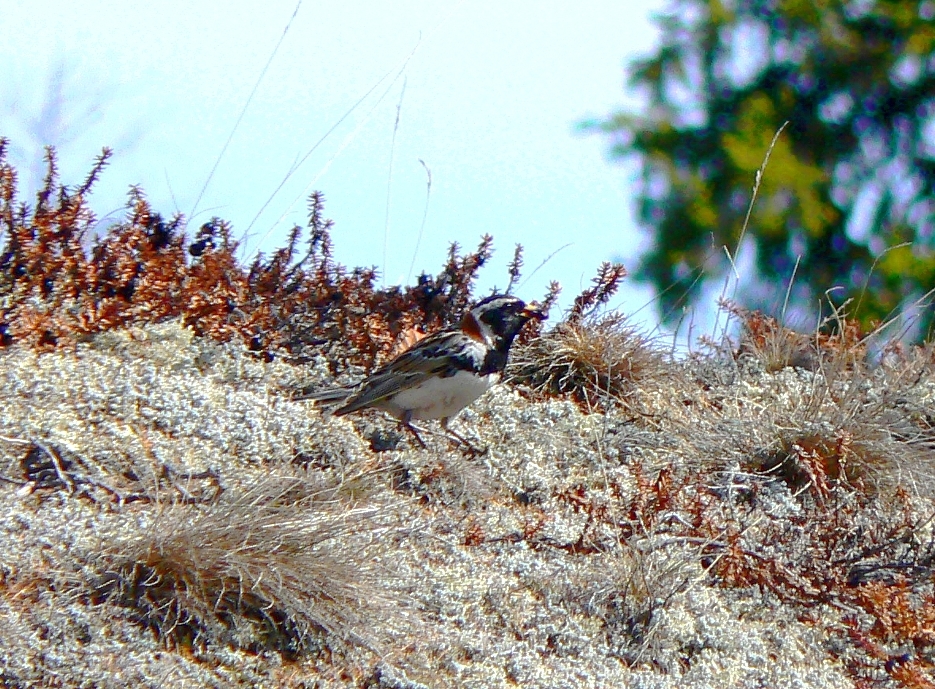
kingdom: Animalia
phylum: Chordata
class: Aves
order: Passeriformes
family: Calcariidae
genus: Calcarius
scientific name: Calcarius lapponicus
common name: Lapland longspur
